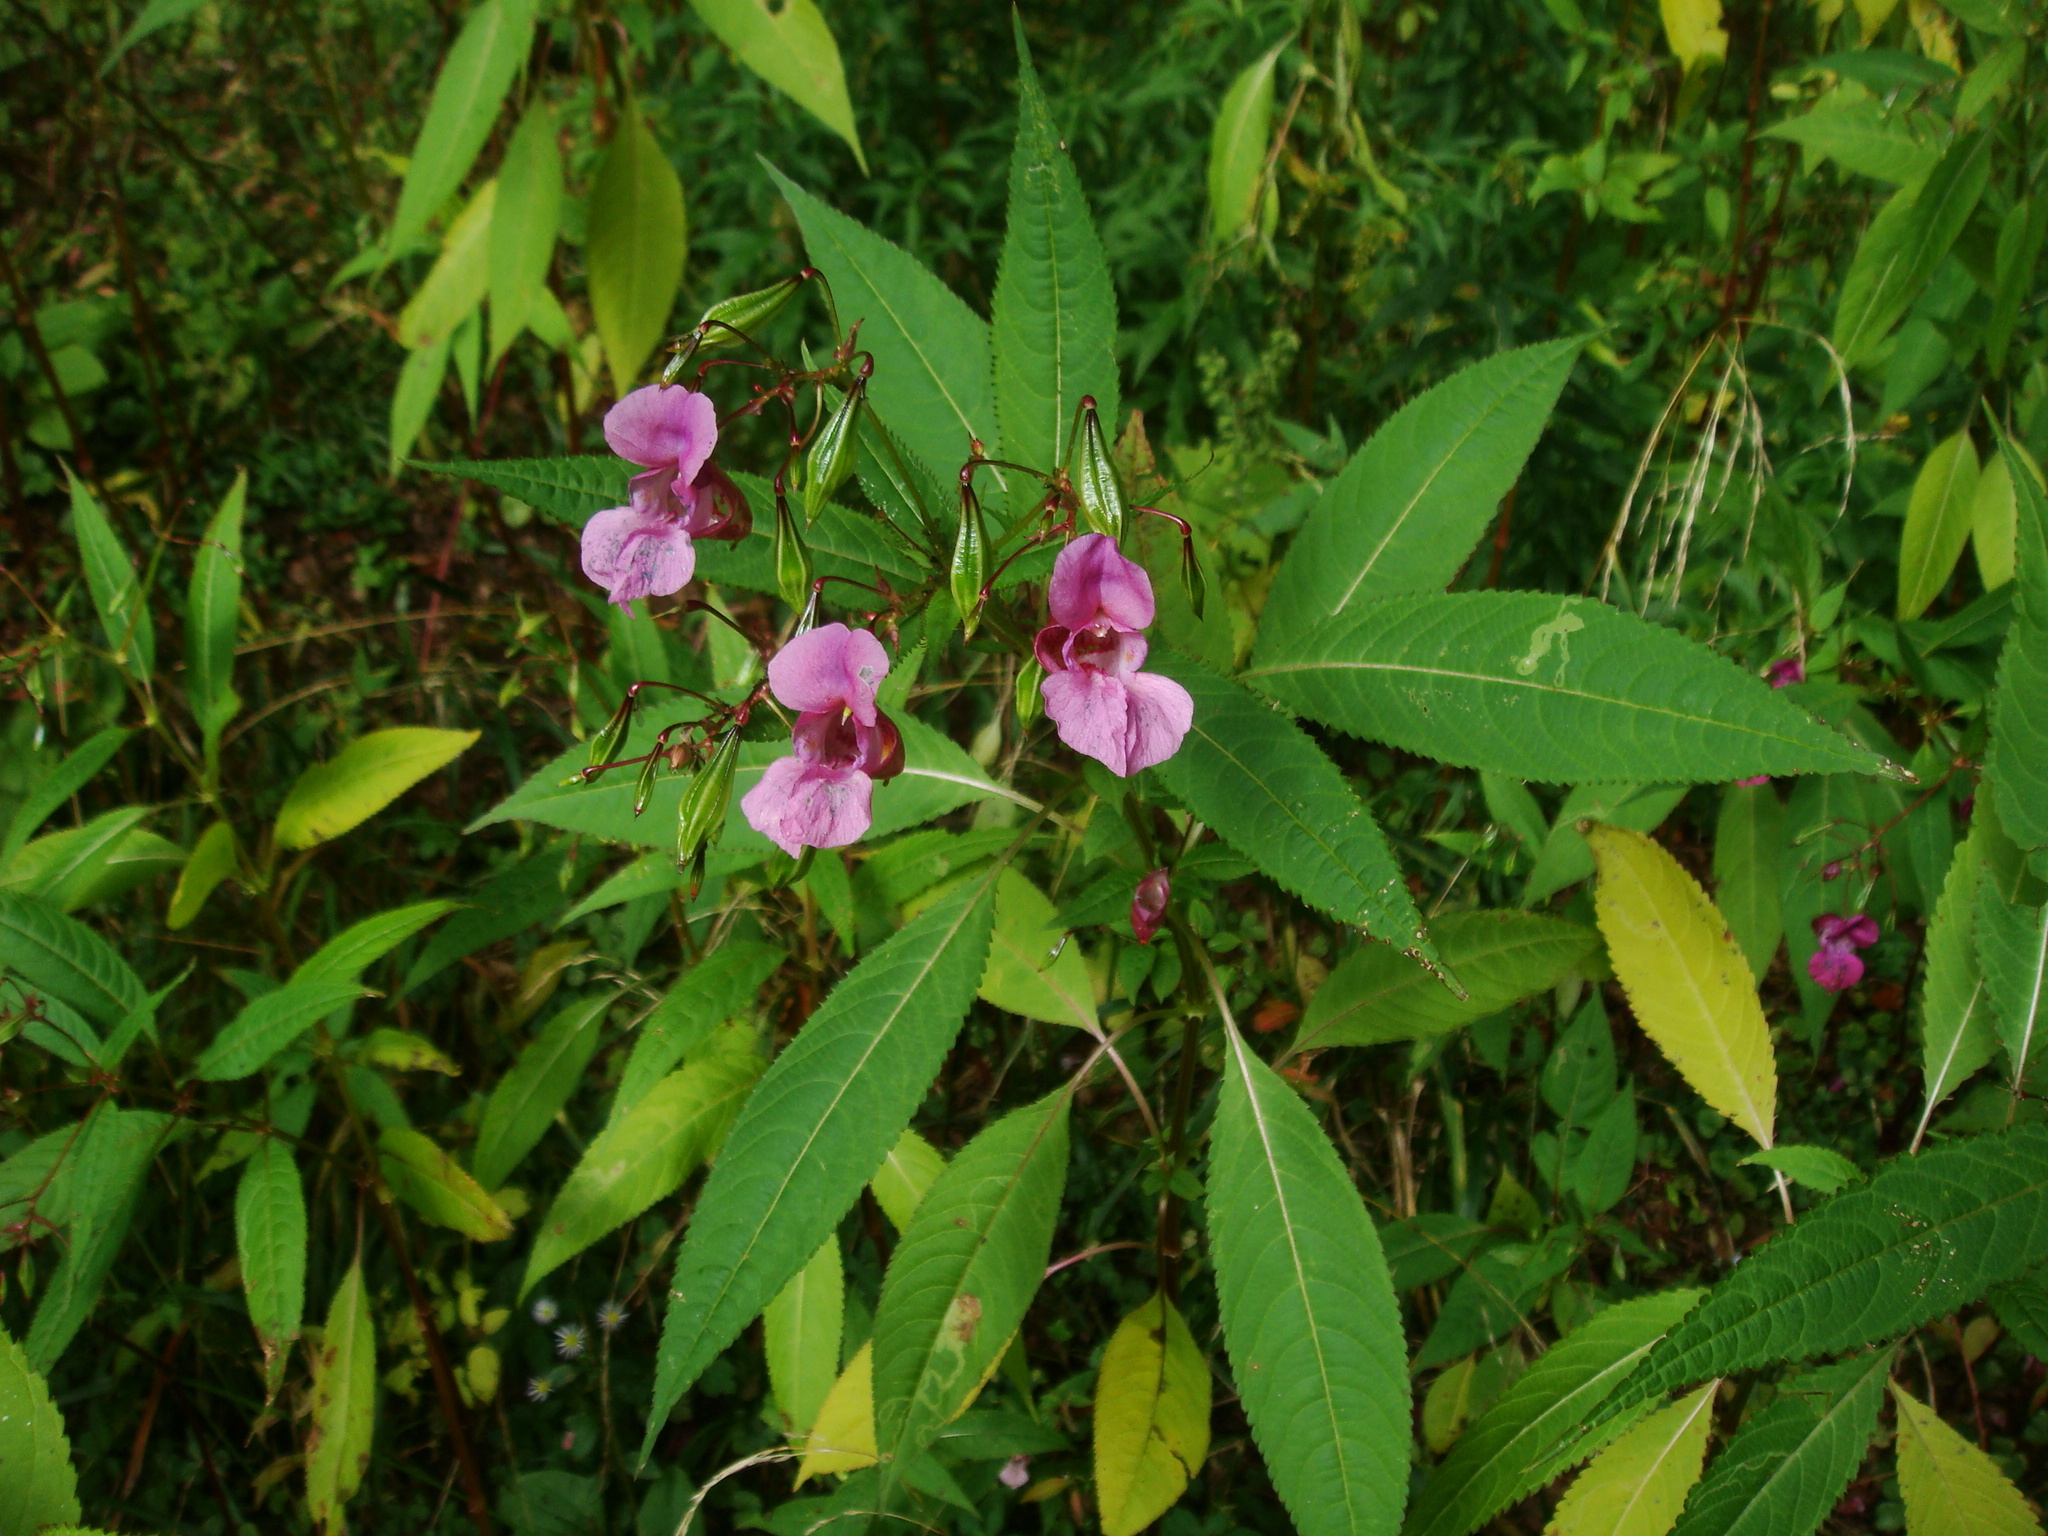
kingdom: Plantae
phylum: Tracheophyta
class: Magnoliopsida
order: Ericales
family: Balsaminaceae
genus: Impatiens
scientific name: Impatiens glandulifera
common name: Himalayan balsam
